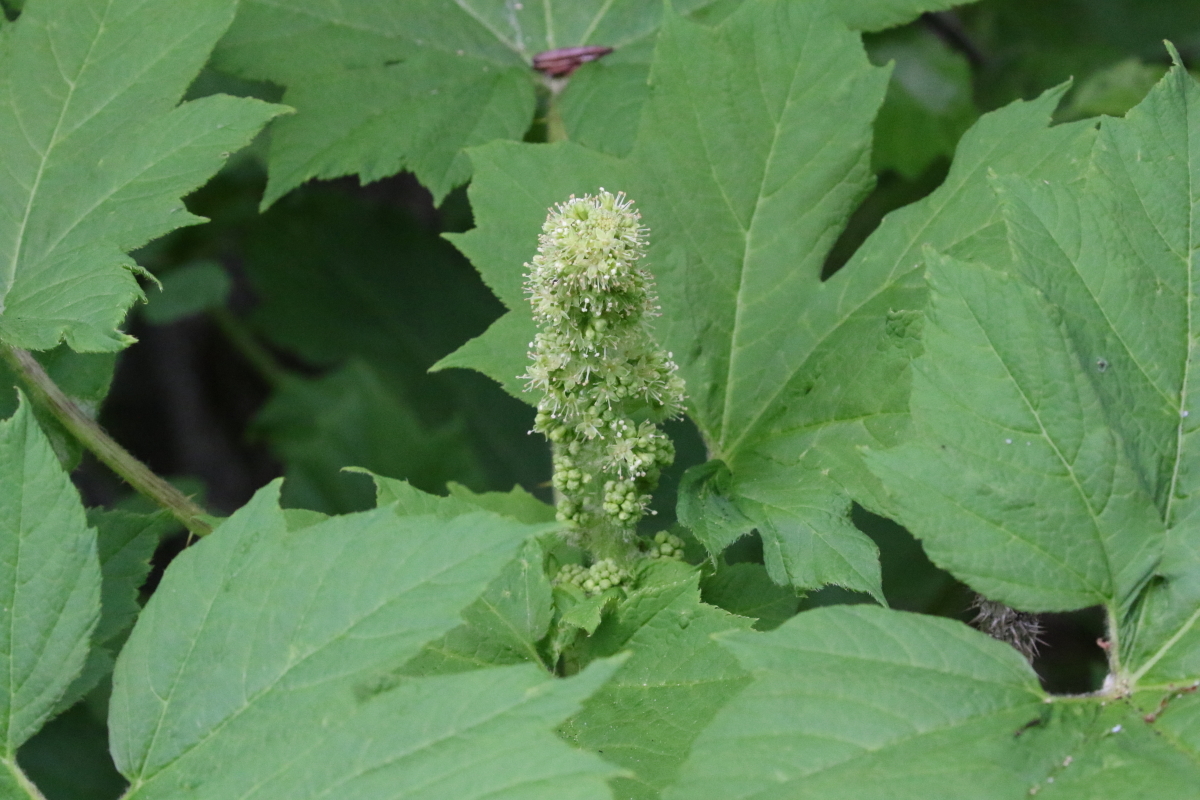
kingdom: Plantae
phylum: Tracheophyta
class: Magnoliopsida
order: Apiales
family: Araliaceae
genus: Oplopanax
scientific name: Oplopanax horridus
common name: Devil's walking-stick
